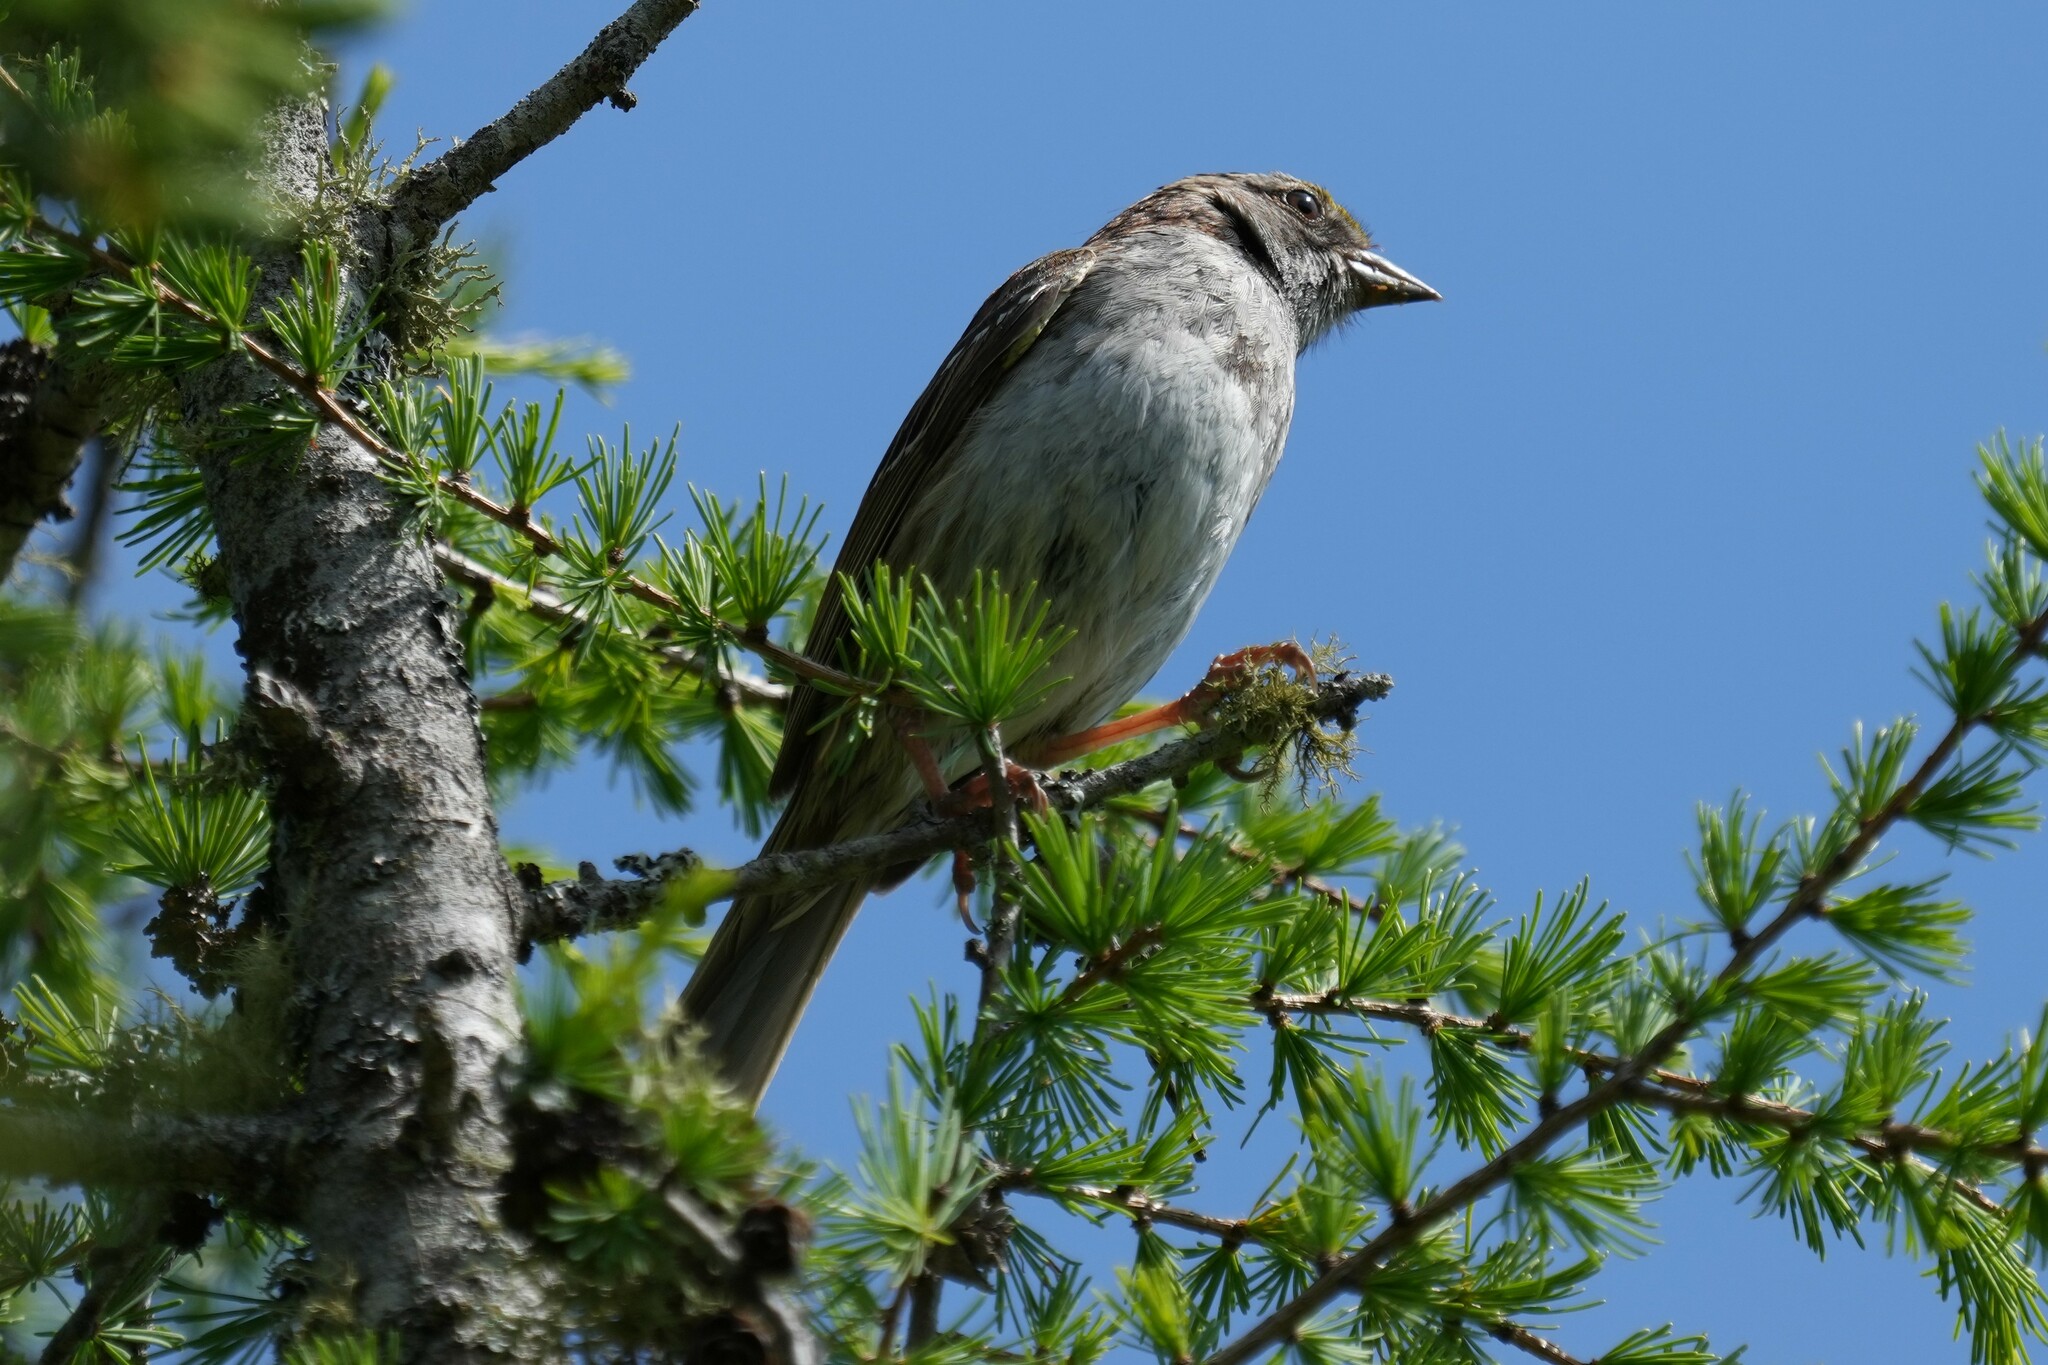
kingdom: Animalia
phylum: Chordata
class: Aves
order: Passeriformes
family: Passerellidae
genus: Zonotrichia
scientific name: Zonotrichia albicollis
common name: White-throated sparrow
